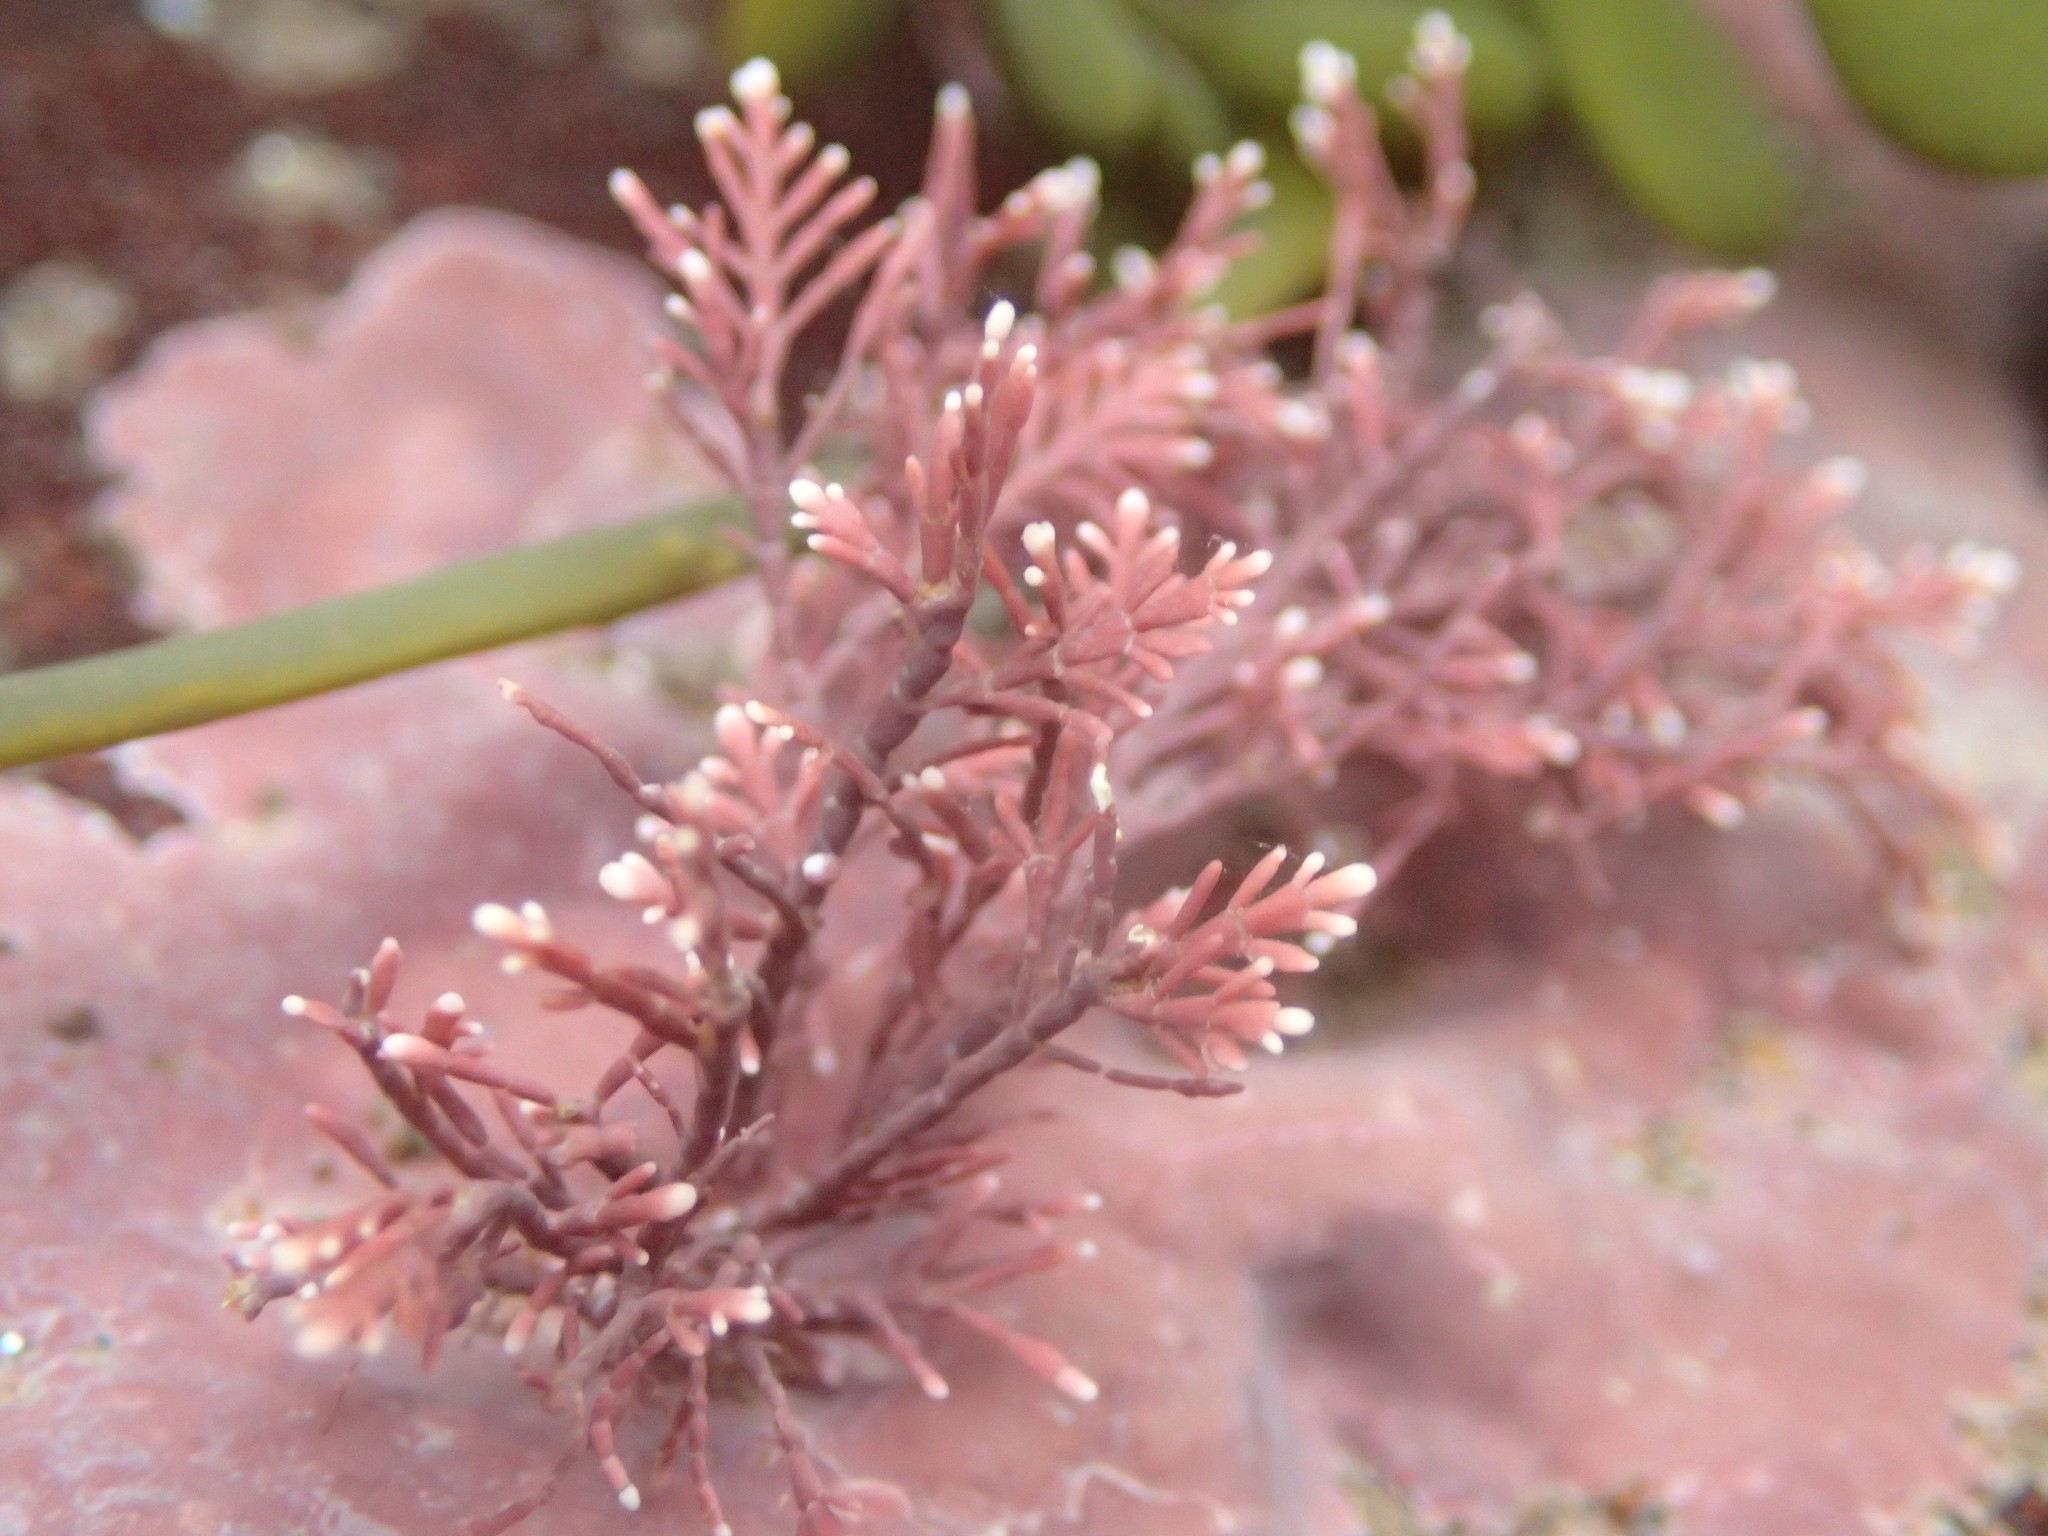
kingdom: Plantae
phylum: Rhodophyta
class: Florideophyceae
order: Corallinales
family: Corallinaceae
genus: Corallina
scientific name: Corallina officinalis
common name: Coral weed
